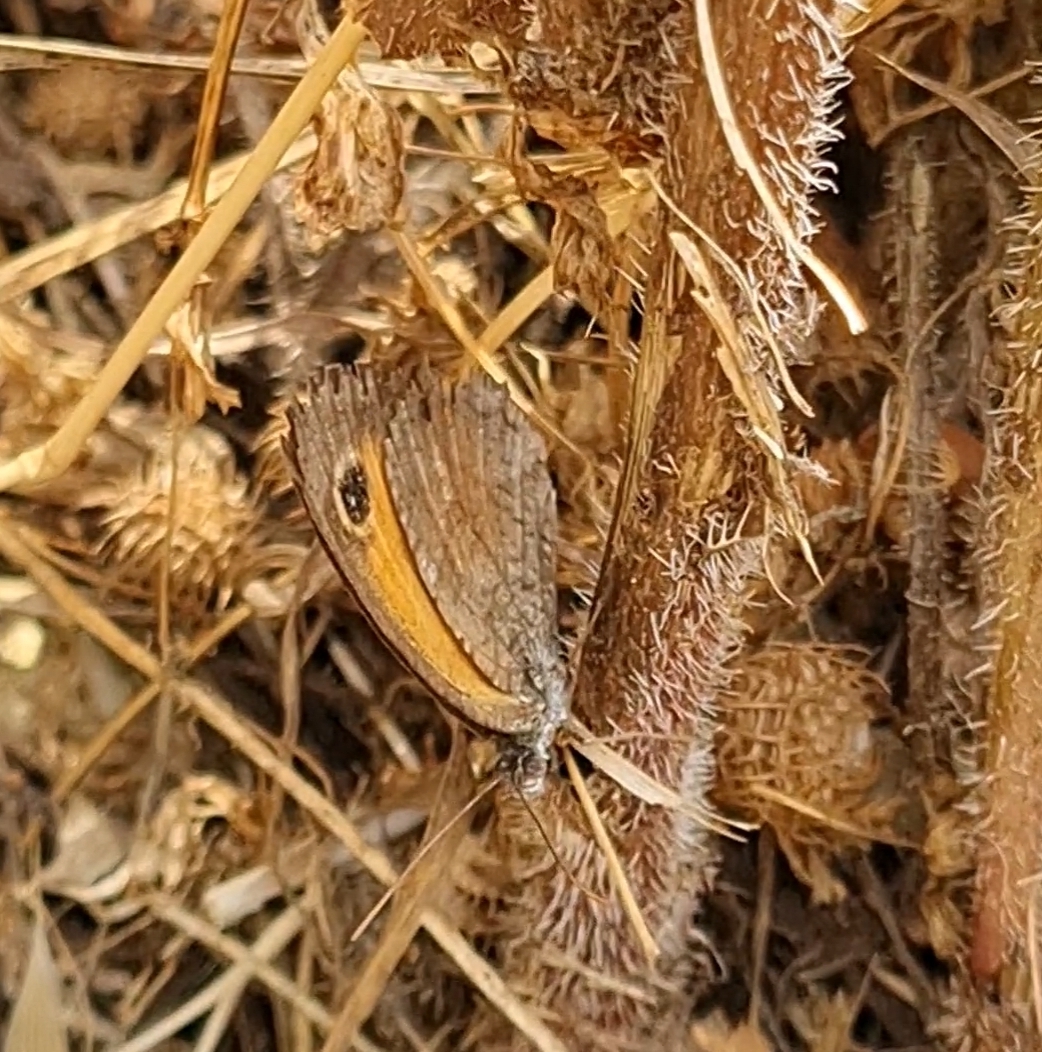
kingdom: Animalia
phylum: Arthropoda
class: Insecta
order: Lepidoptera
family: Nymphalidae
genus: Pyronia
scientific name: Pyronia cecilia
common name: Southern gatekeeper
